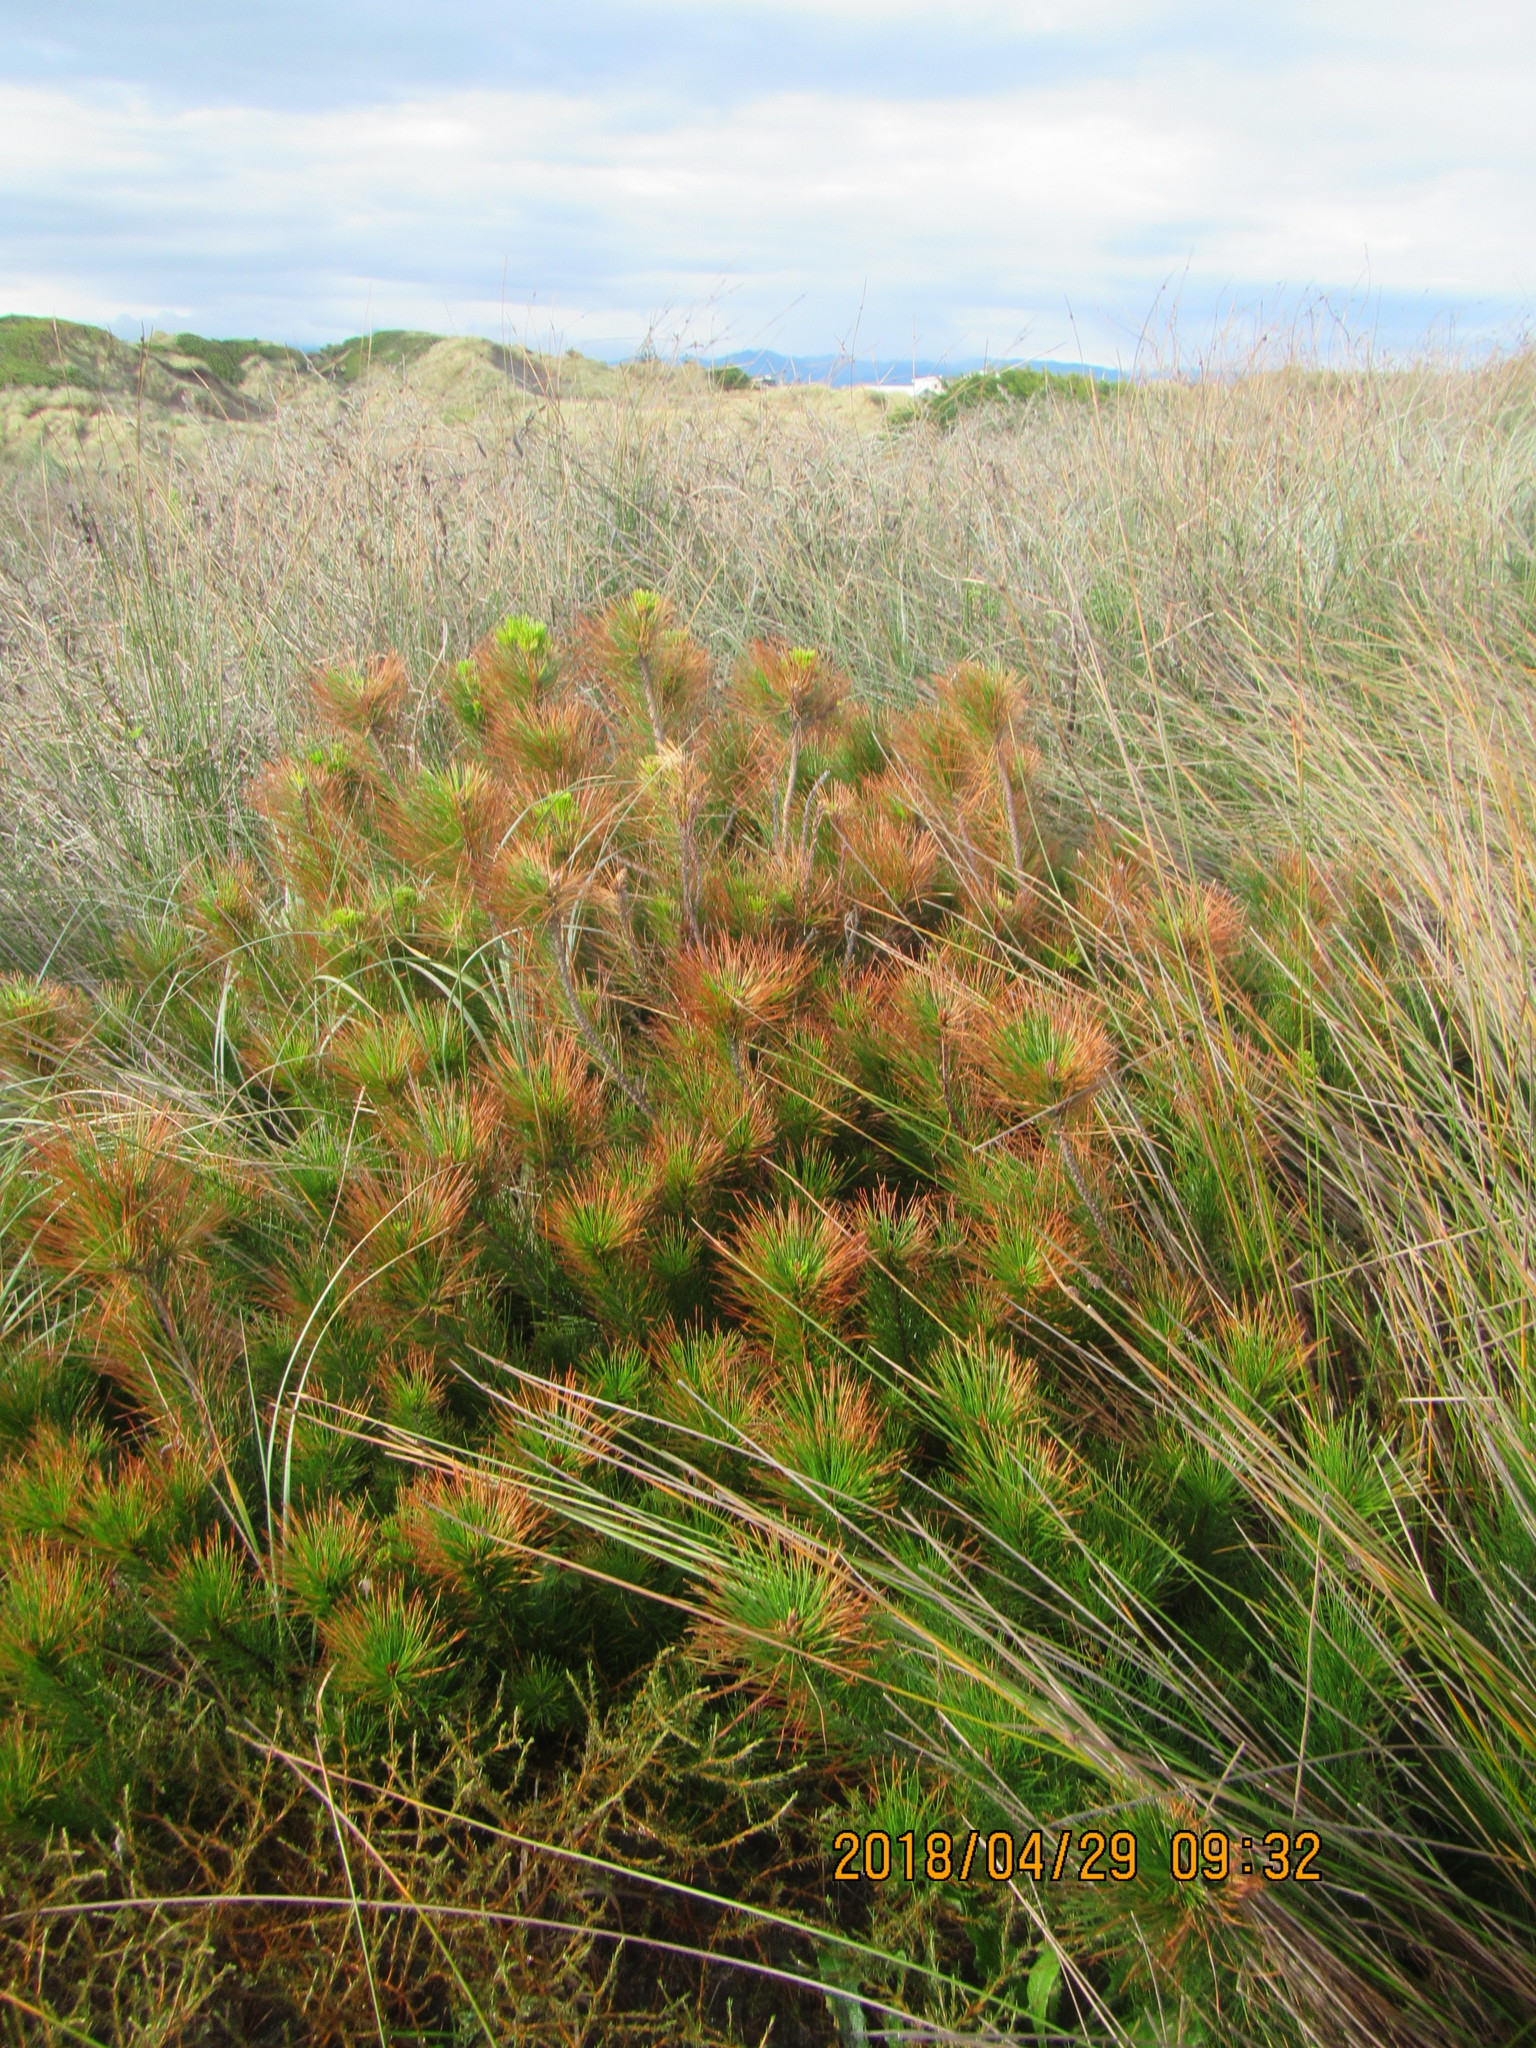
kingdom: Plantae
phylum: Tracheophyta
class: Pinopsida
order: Pinales
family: Pinaceae
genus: Pinus
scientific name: Pinus radiata
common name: Monterey pine
